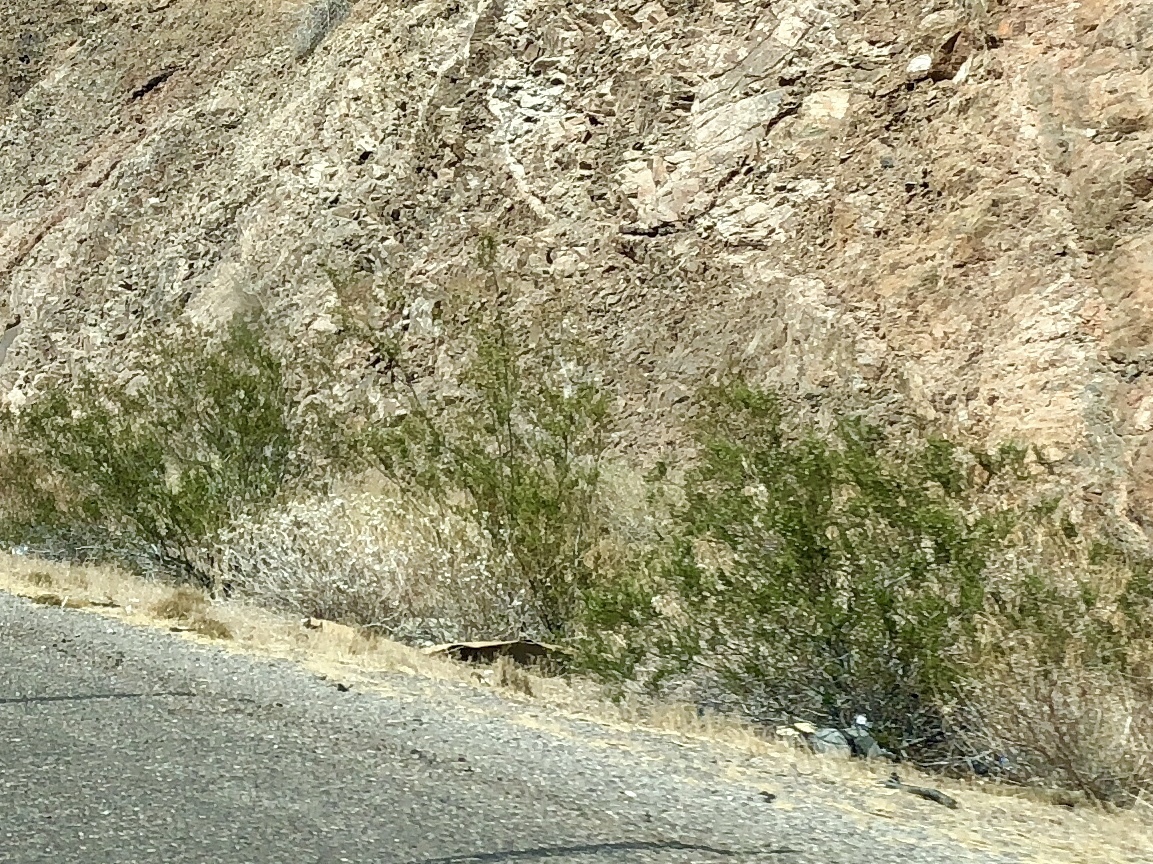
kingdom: Plantae
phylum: Tracheophyta
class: Magnoliopsida
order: Zygophyllales
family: Zygophyllaceae
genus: Larrea
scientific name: Larrea tridentata
